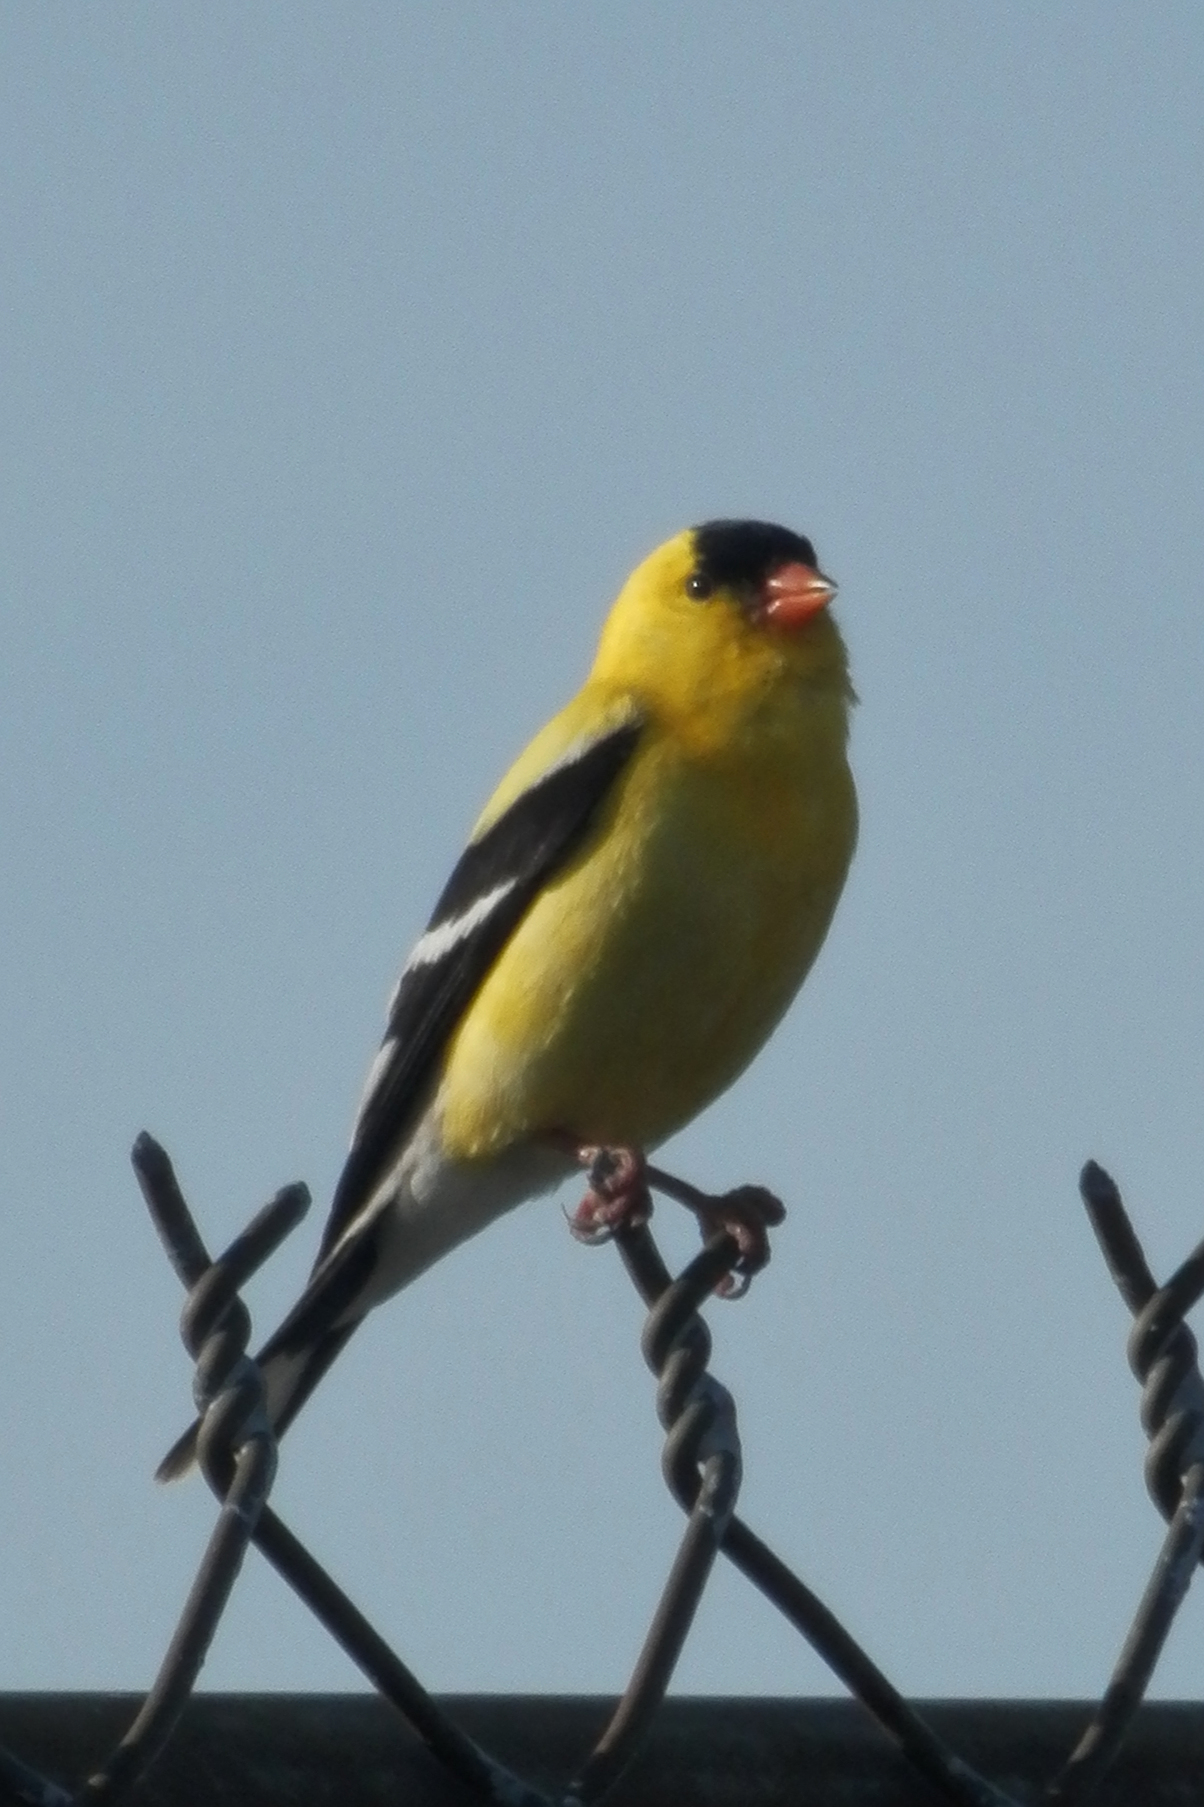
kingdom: Animalia
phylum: Chordata
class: Aves
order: Passeriformes
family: Fringillidae
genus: Spinus
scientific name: Spinus tristis
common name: American goldfinch
